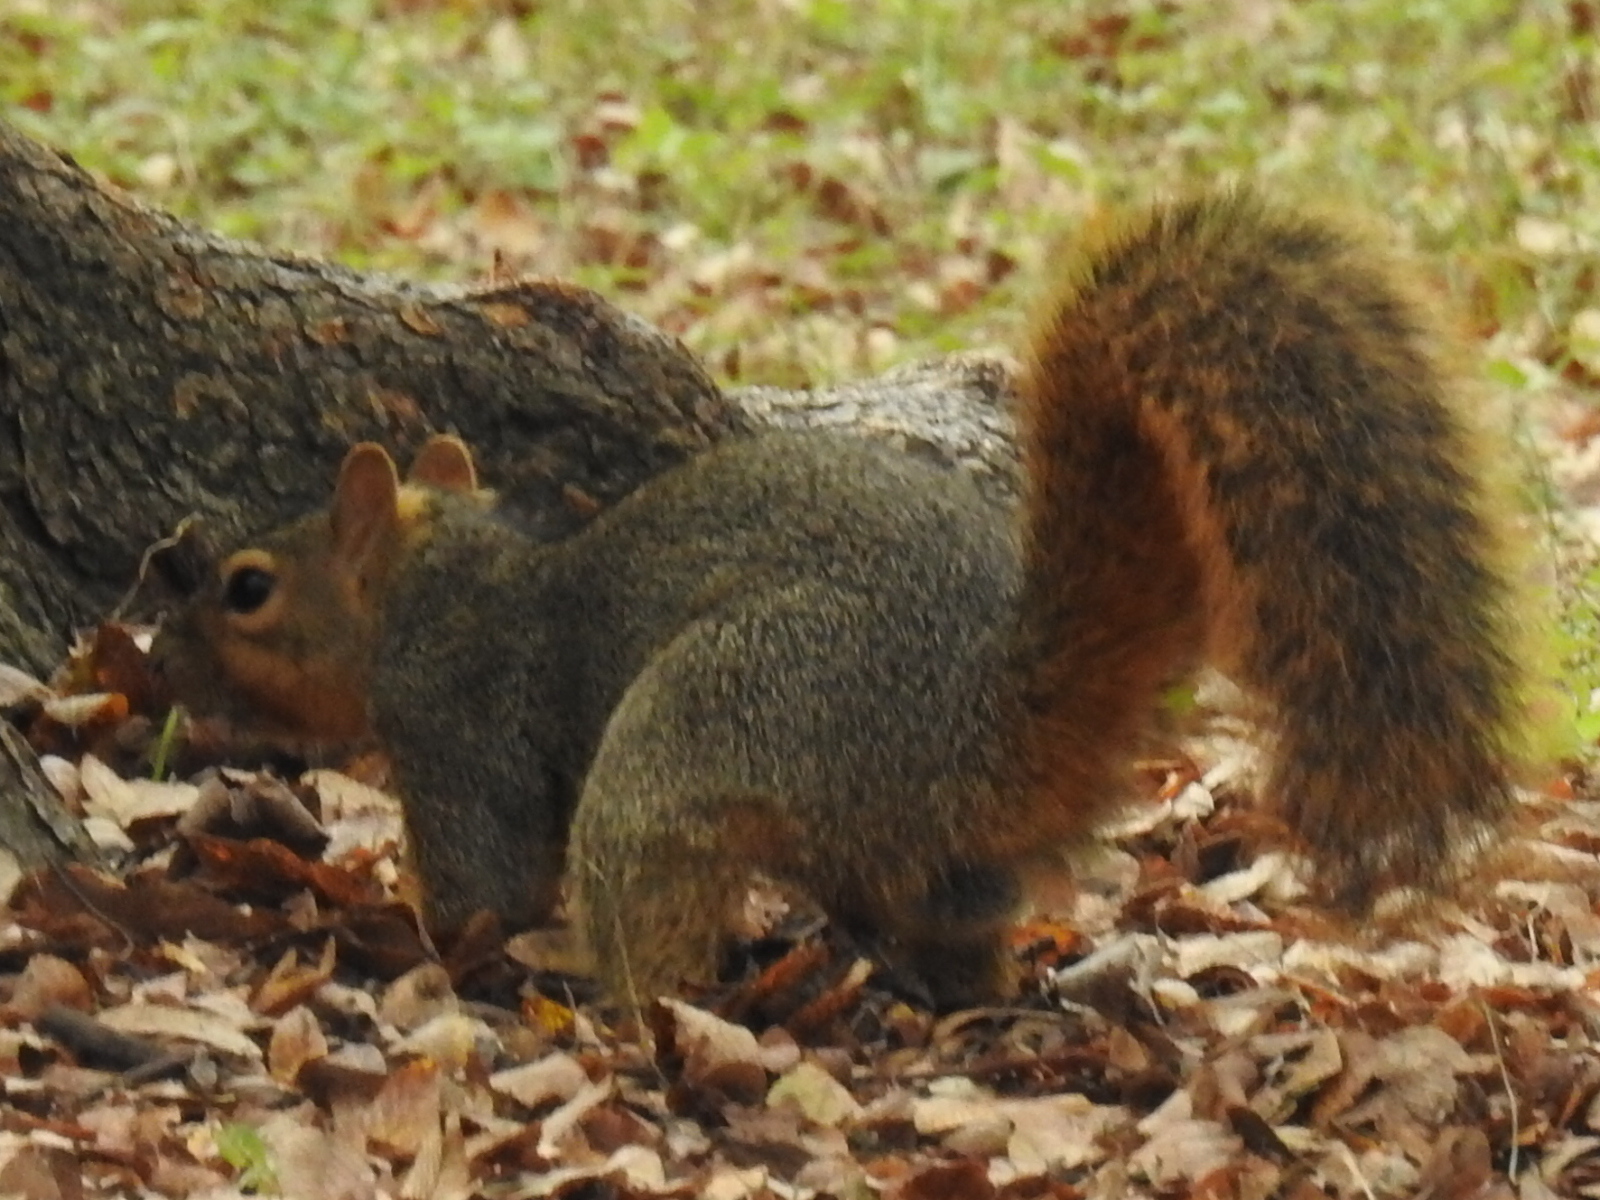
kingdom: Animalia
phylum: Chordata
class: Mammalia
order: Rodentia
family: Sciuridae
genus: Sciurus
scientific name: Sciurus niger
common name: Fox squirrel
